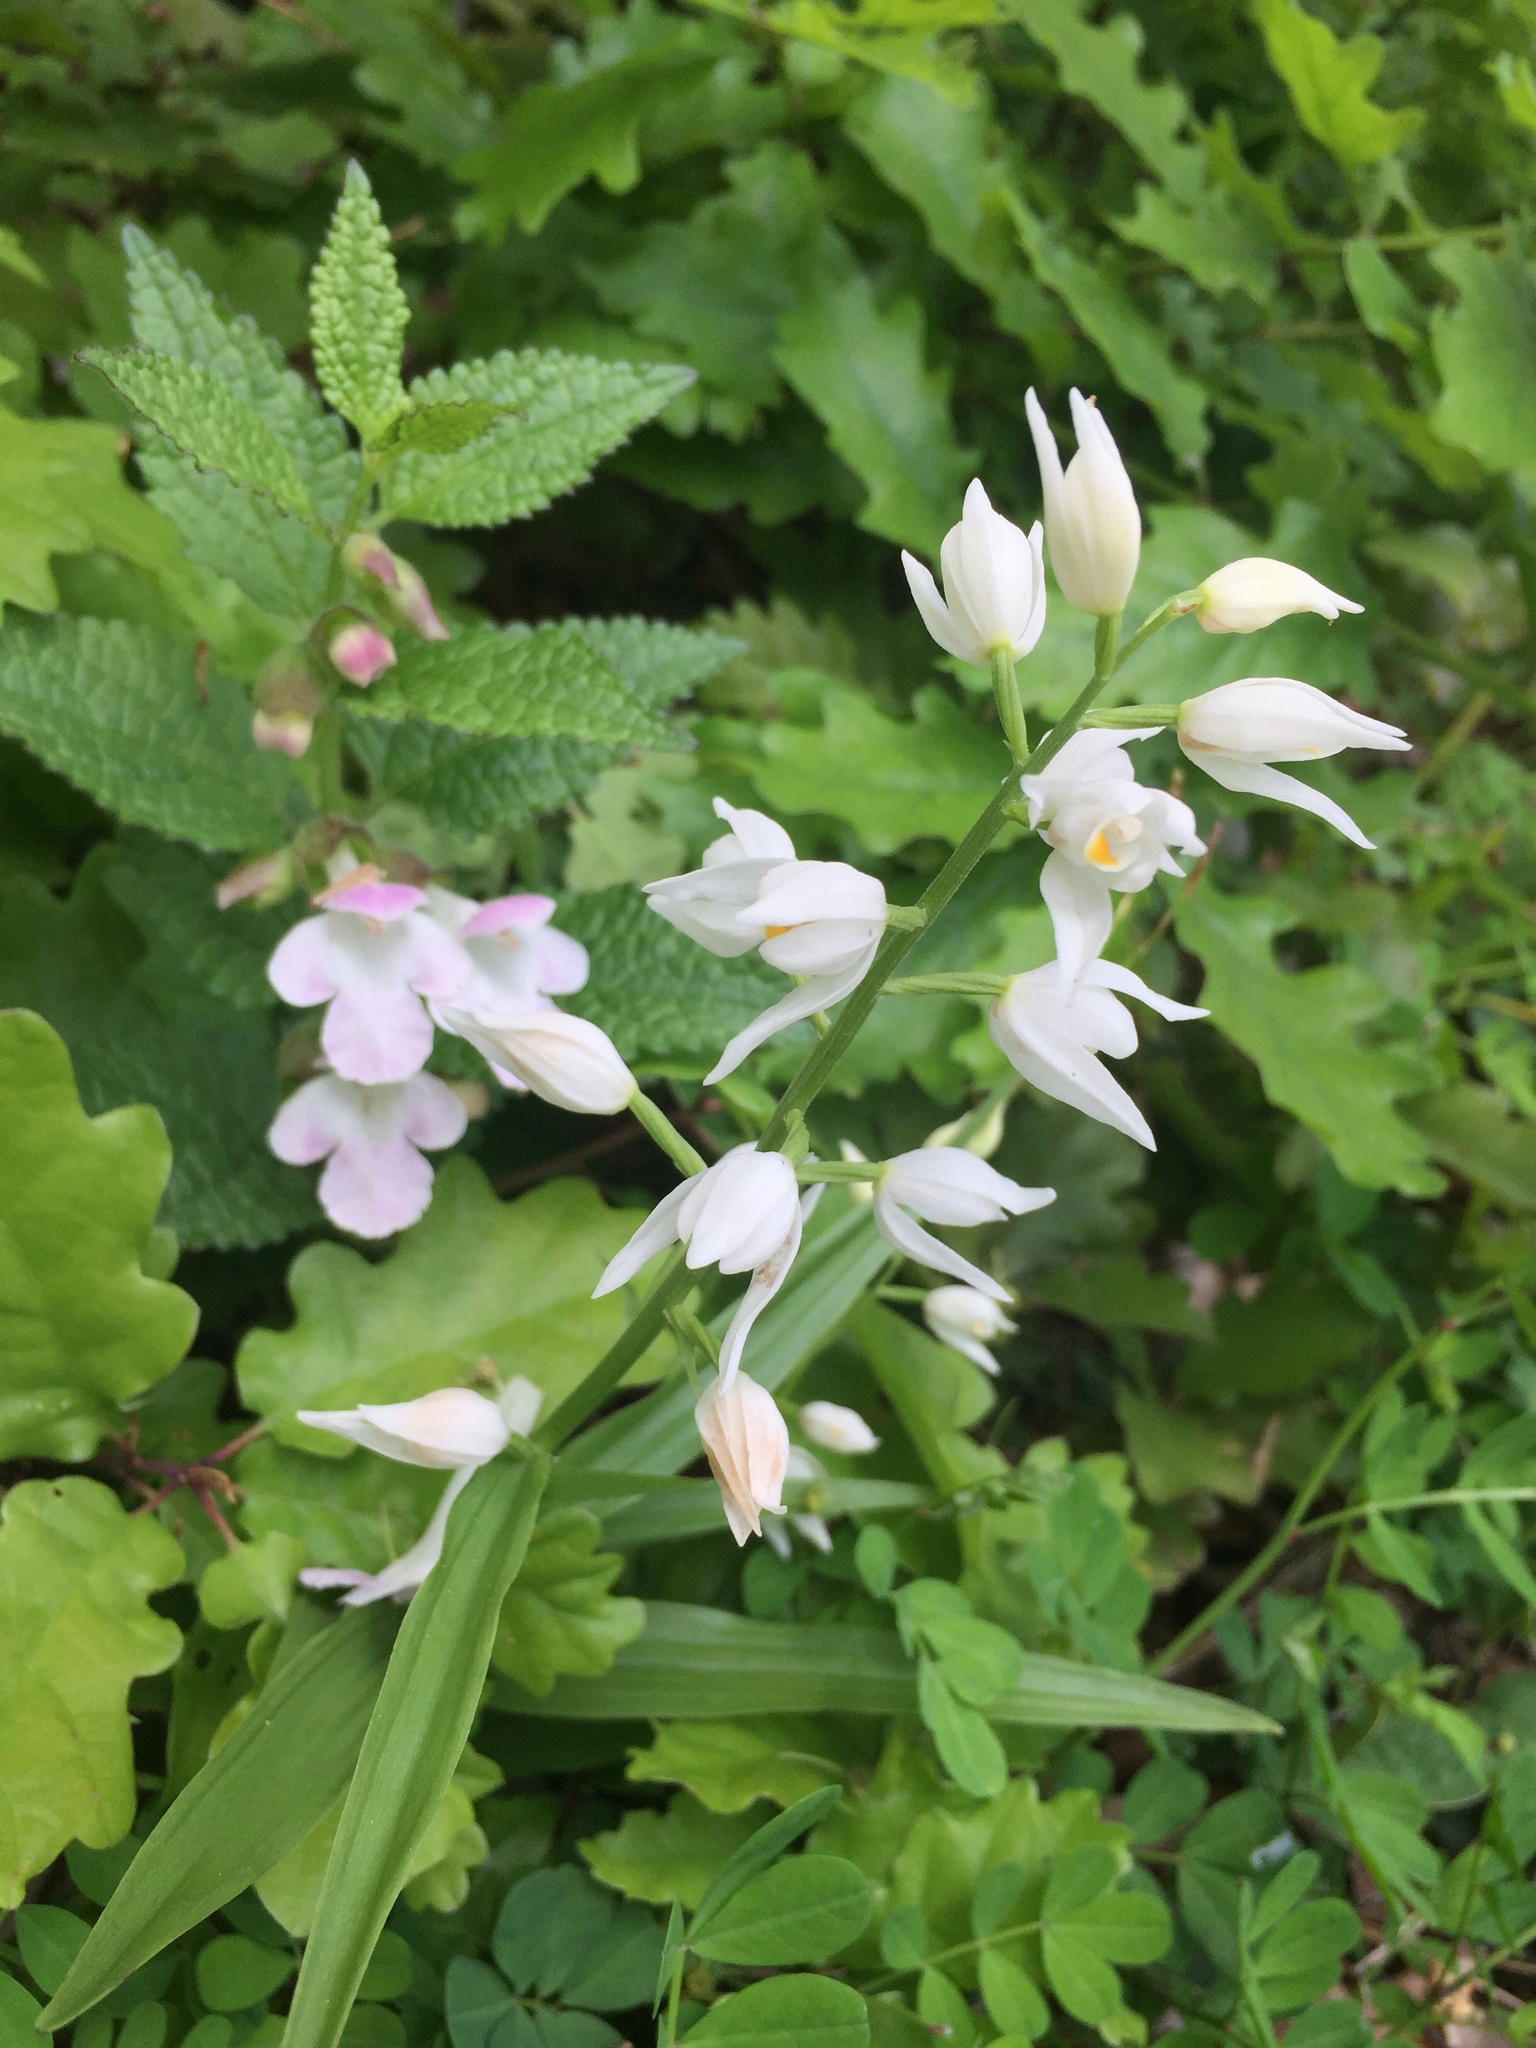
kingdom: Plantae
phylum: Tracheophyta
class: Liliopsida
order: Asparagales
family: Orchidaceae
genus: Cephalanthera
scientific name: Cephalanthera longifolia
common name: Narrow-leaved helleborine
